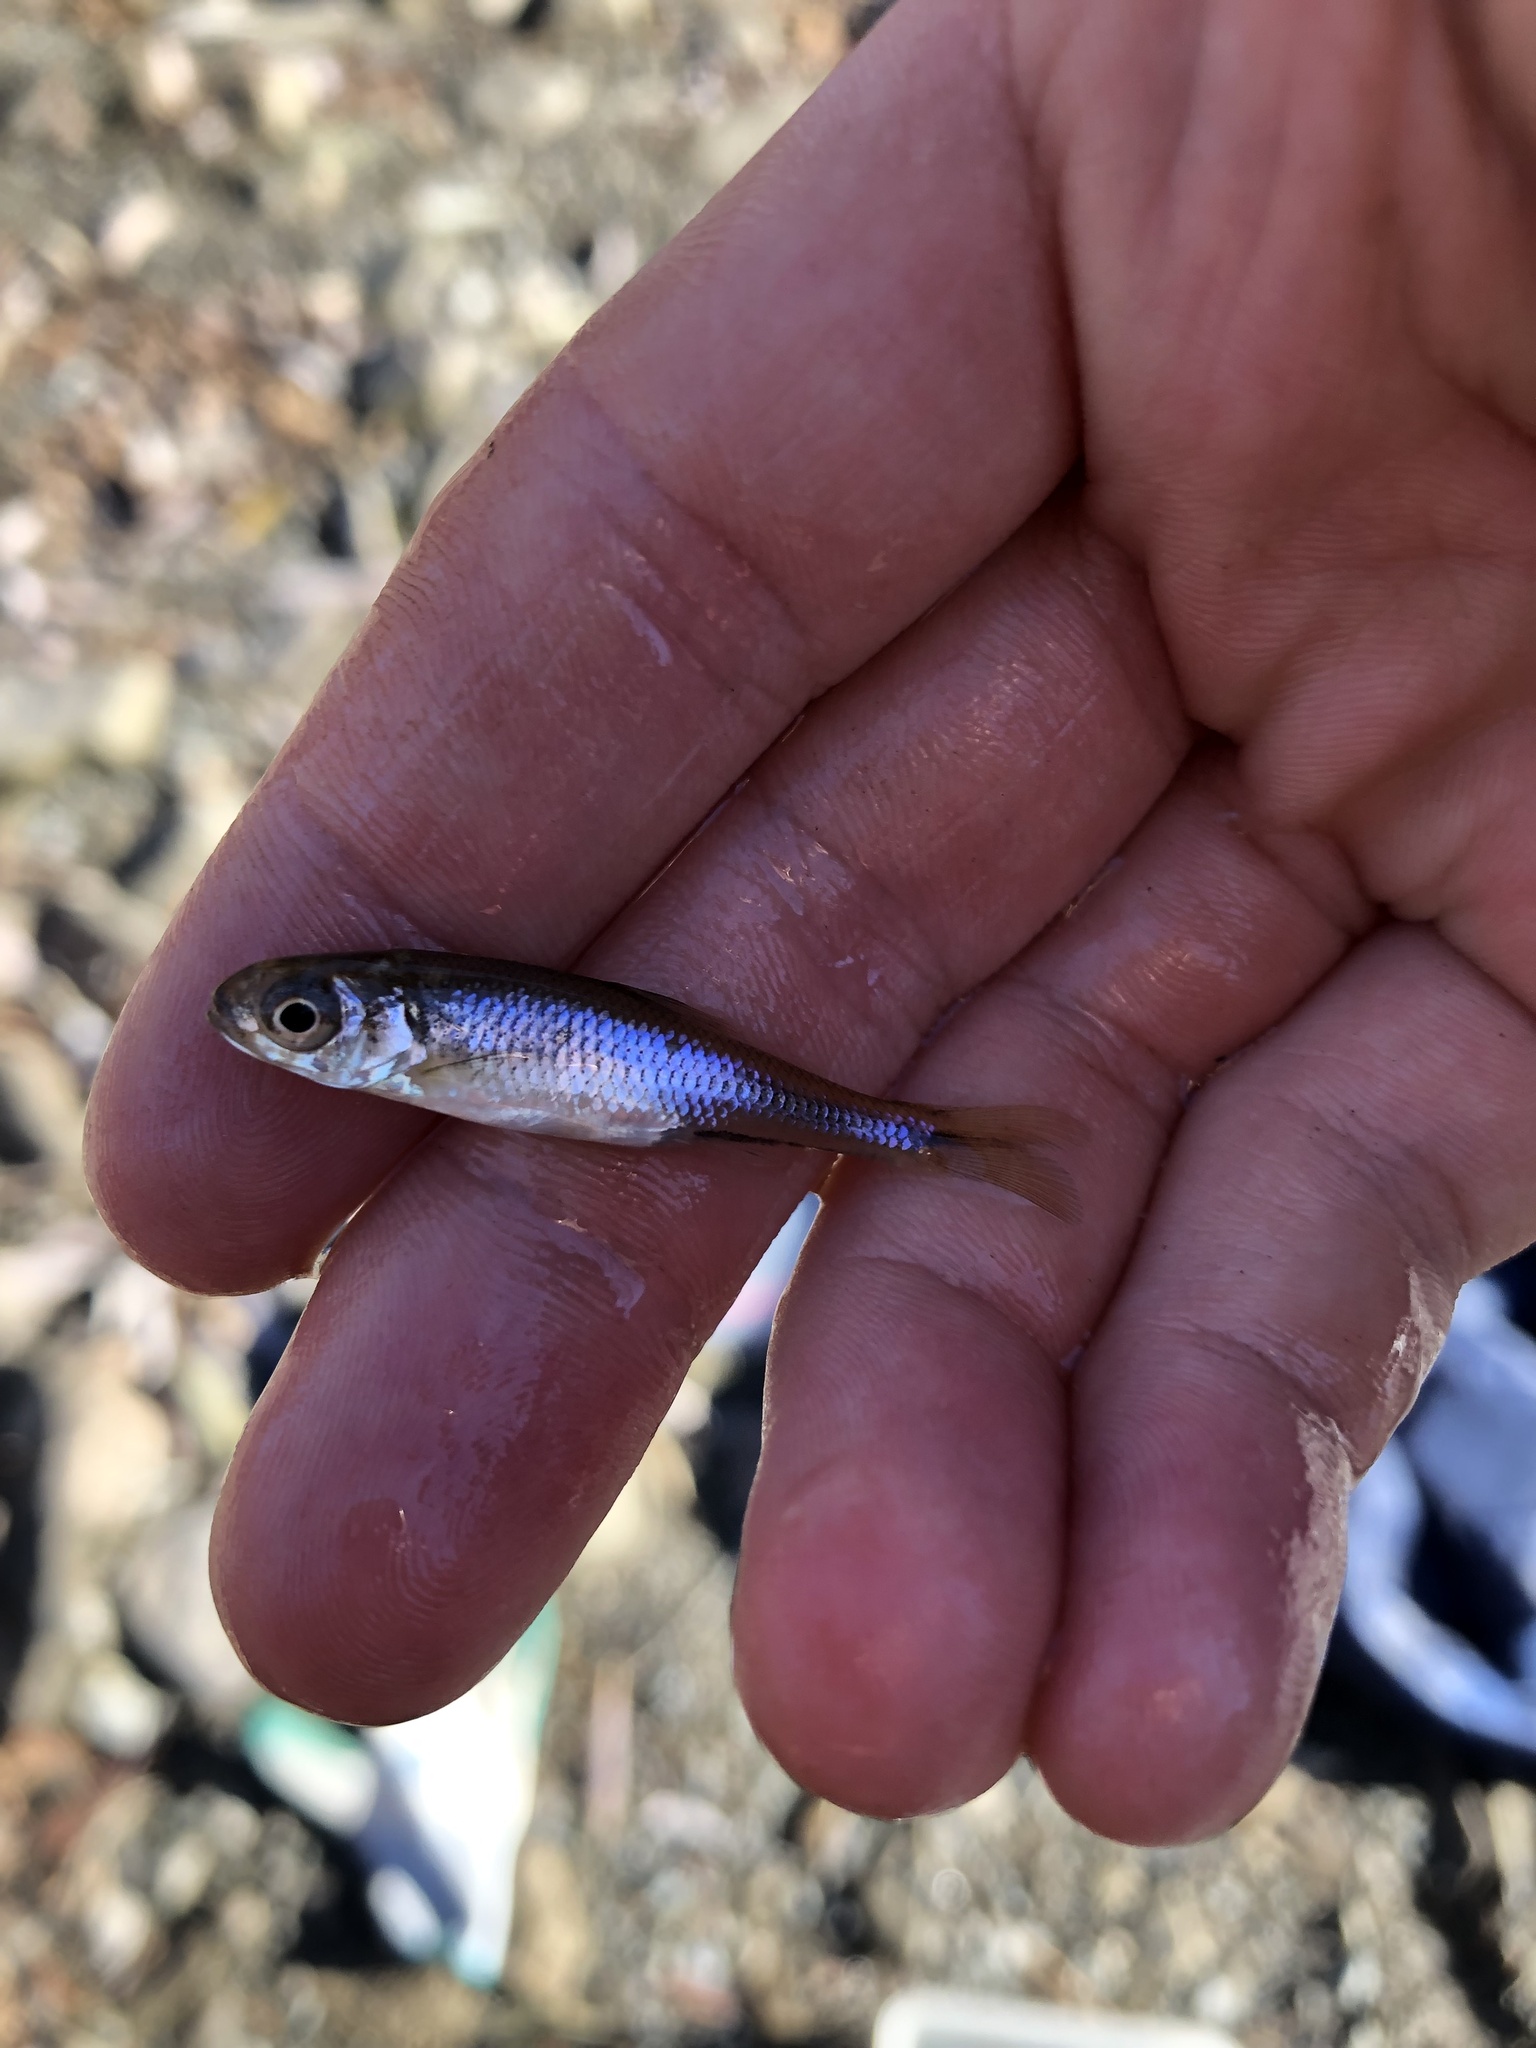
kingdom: Animalia
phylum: Chordata
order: Cypriniformes
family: Cyprinidae
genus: Luxilus
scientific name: Luxilus cornutus
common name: Common shiner
